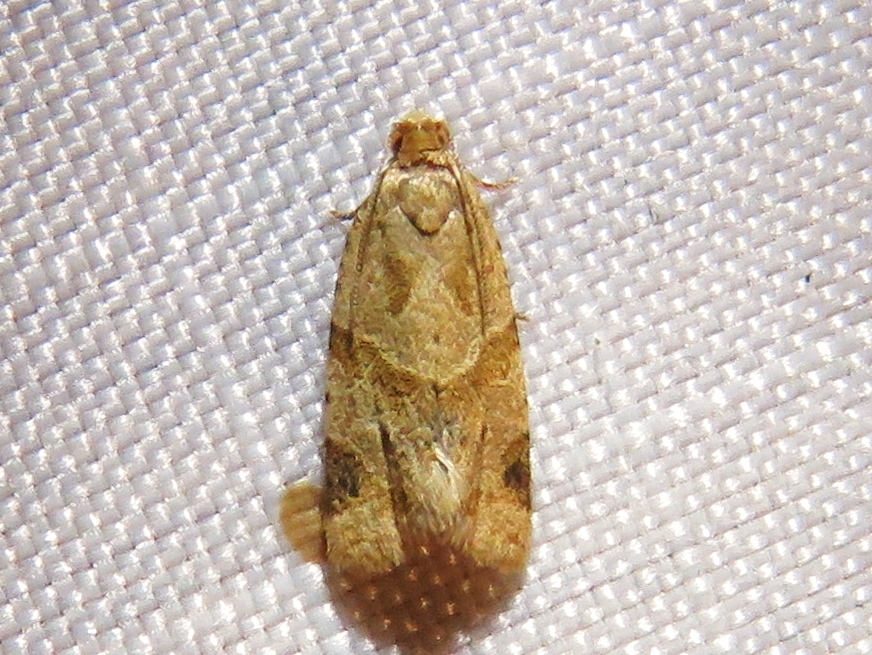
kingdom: Animalia
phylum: Arthropoda
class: Insecta
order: Lepidoptera
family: Tortricidae
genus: Clepsis
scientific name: Clepsis peritana
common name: Garden tortrix
